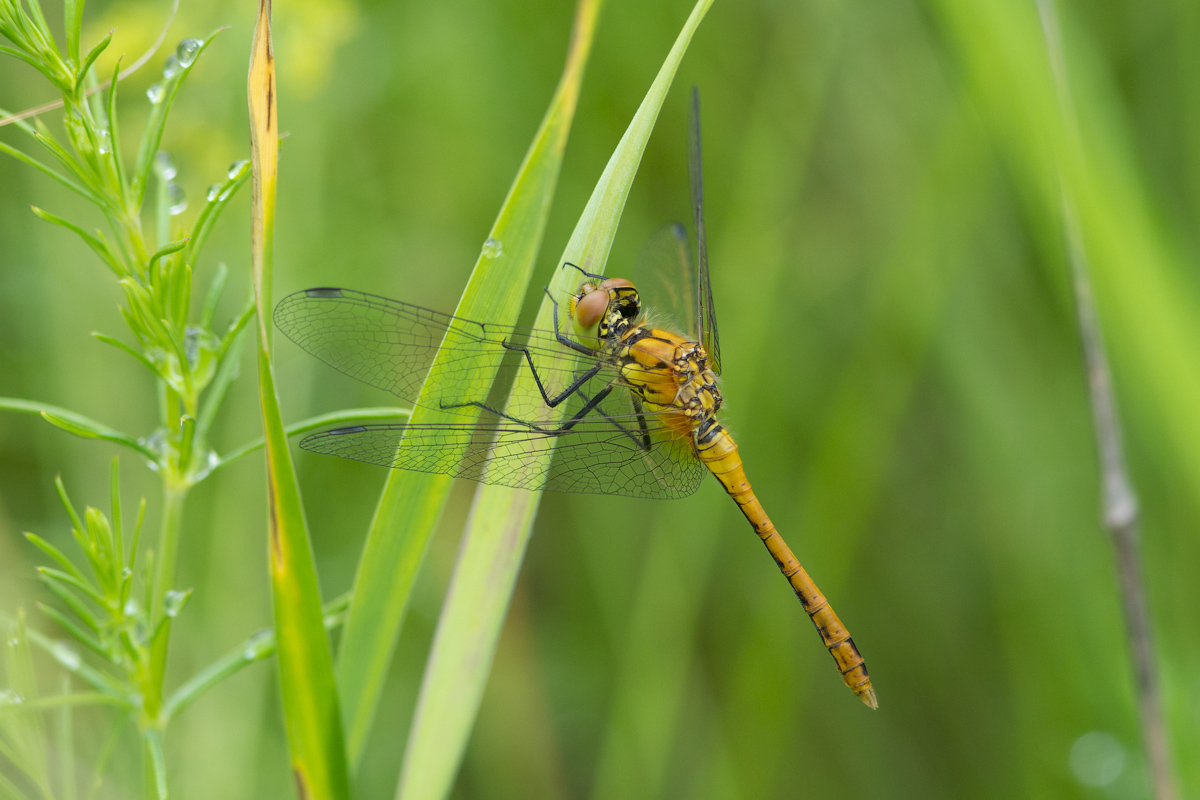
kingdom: Animalia
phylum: Arthropoda
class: Insecta
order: Odonata
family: Libellulidae
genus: Sympetrum
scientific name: Sympetrum sanguineum
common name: Ruddy darter
